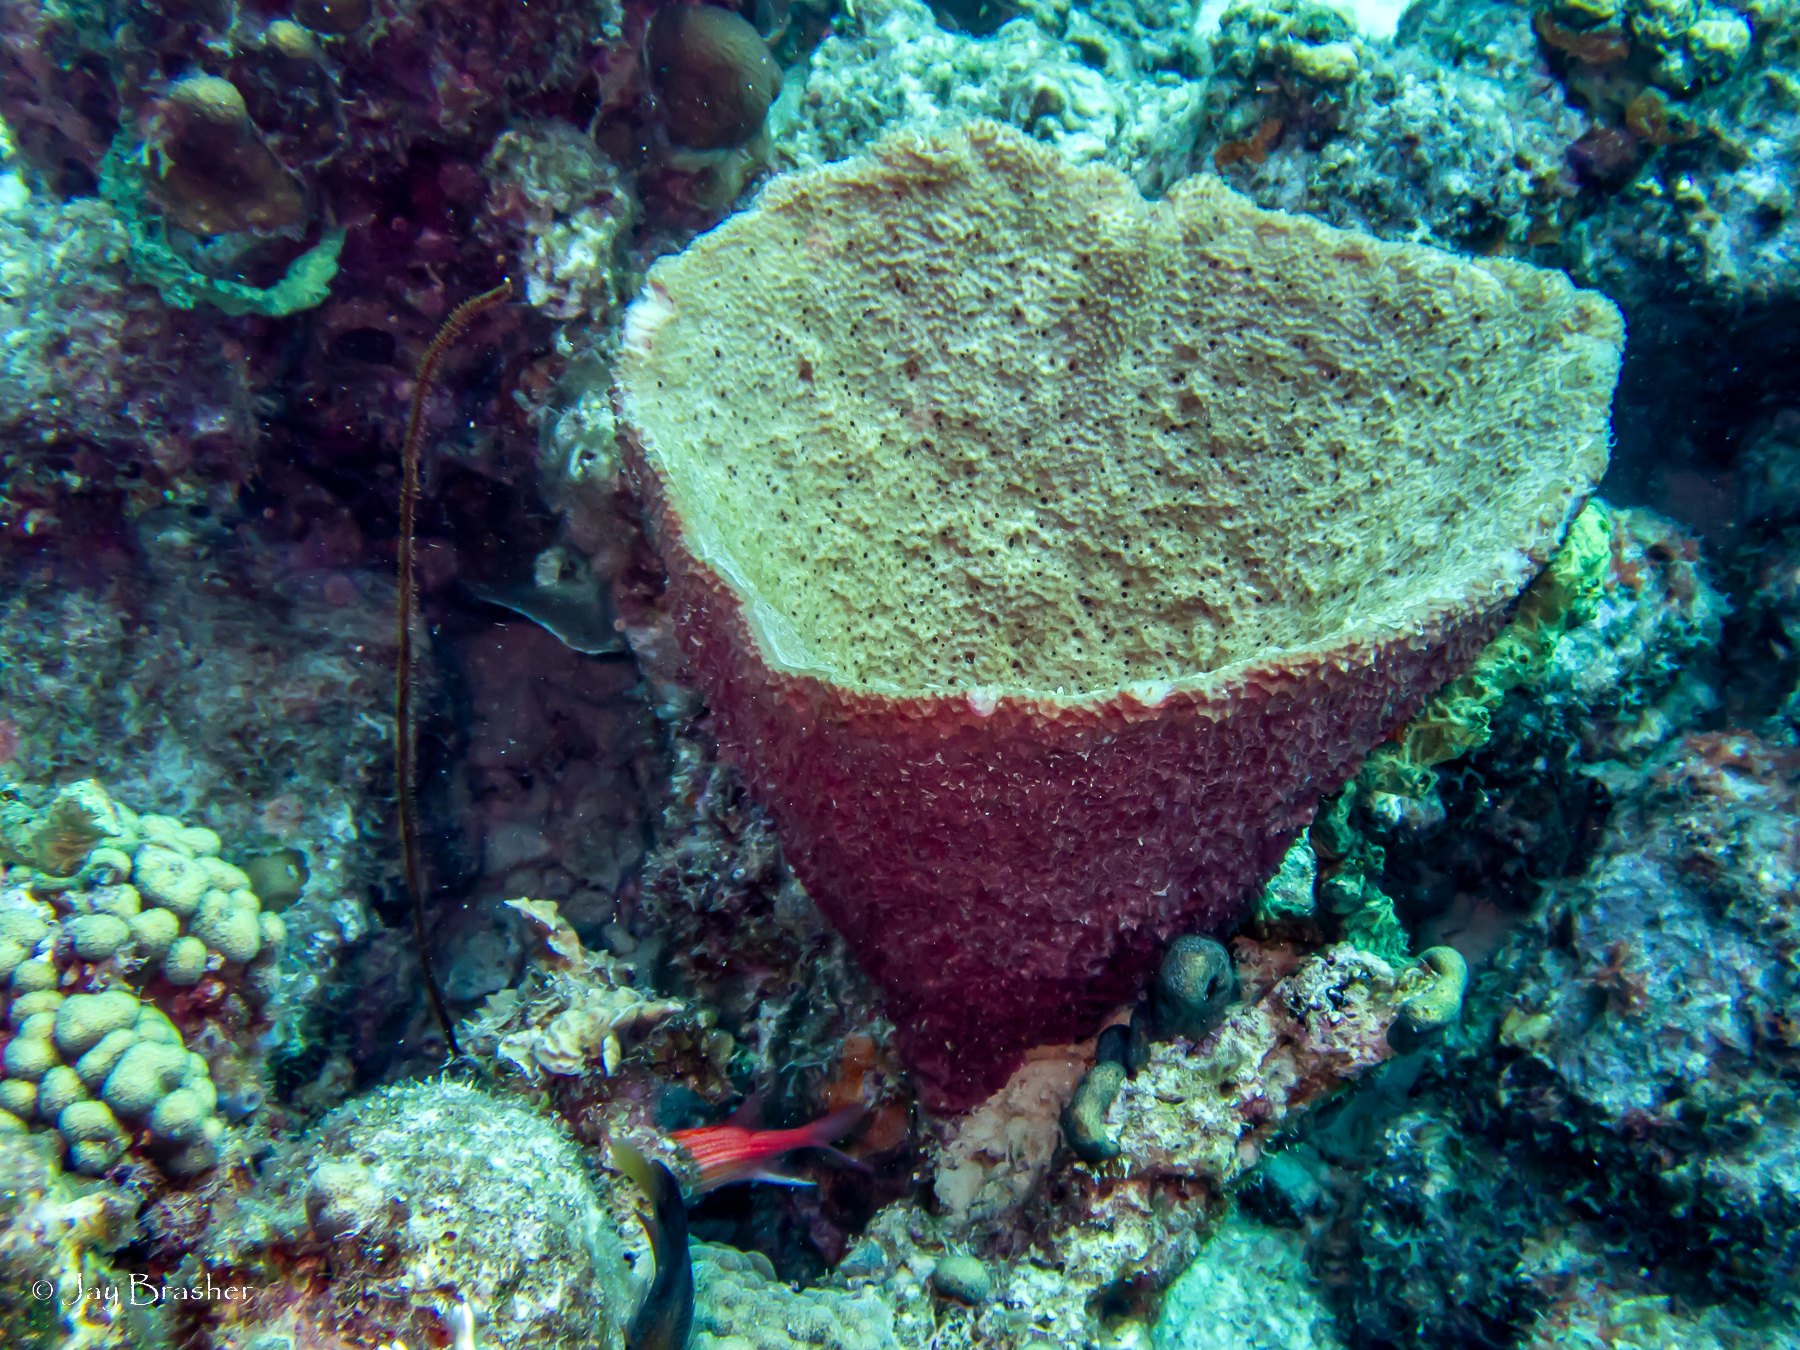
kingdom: Animalia
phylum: Cnidaria
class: Anthozoa
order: Antipatharia
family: Antipathidae
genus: Stichopathes
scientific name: Stichopathes luetkeni
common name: Black wire coral
